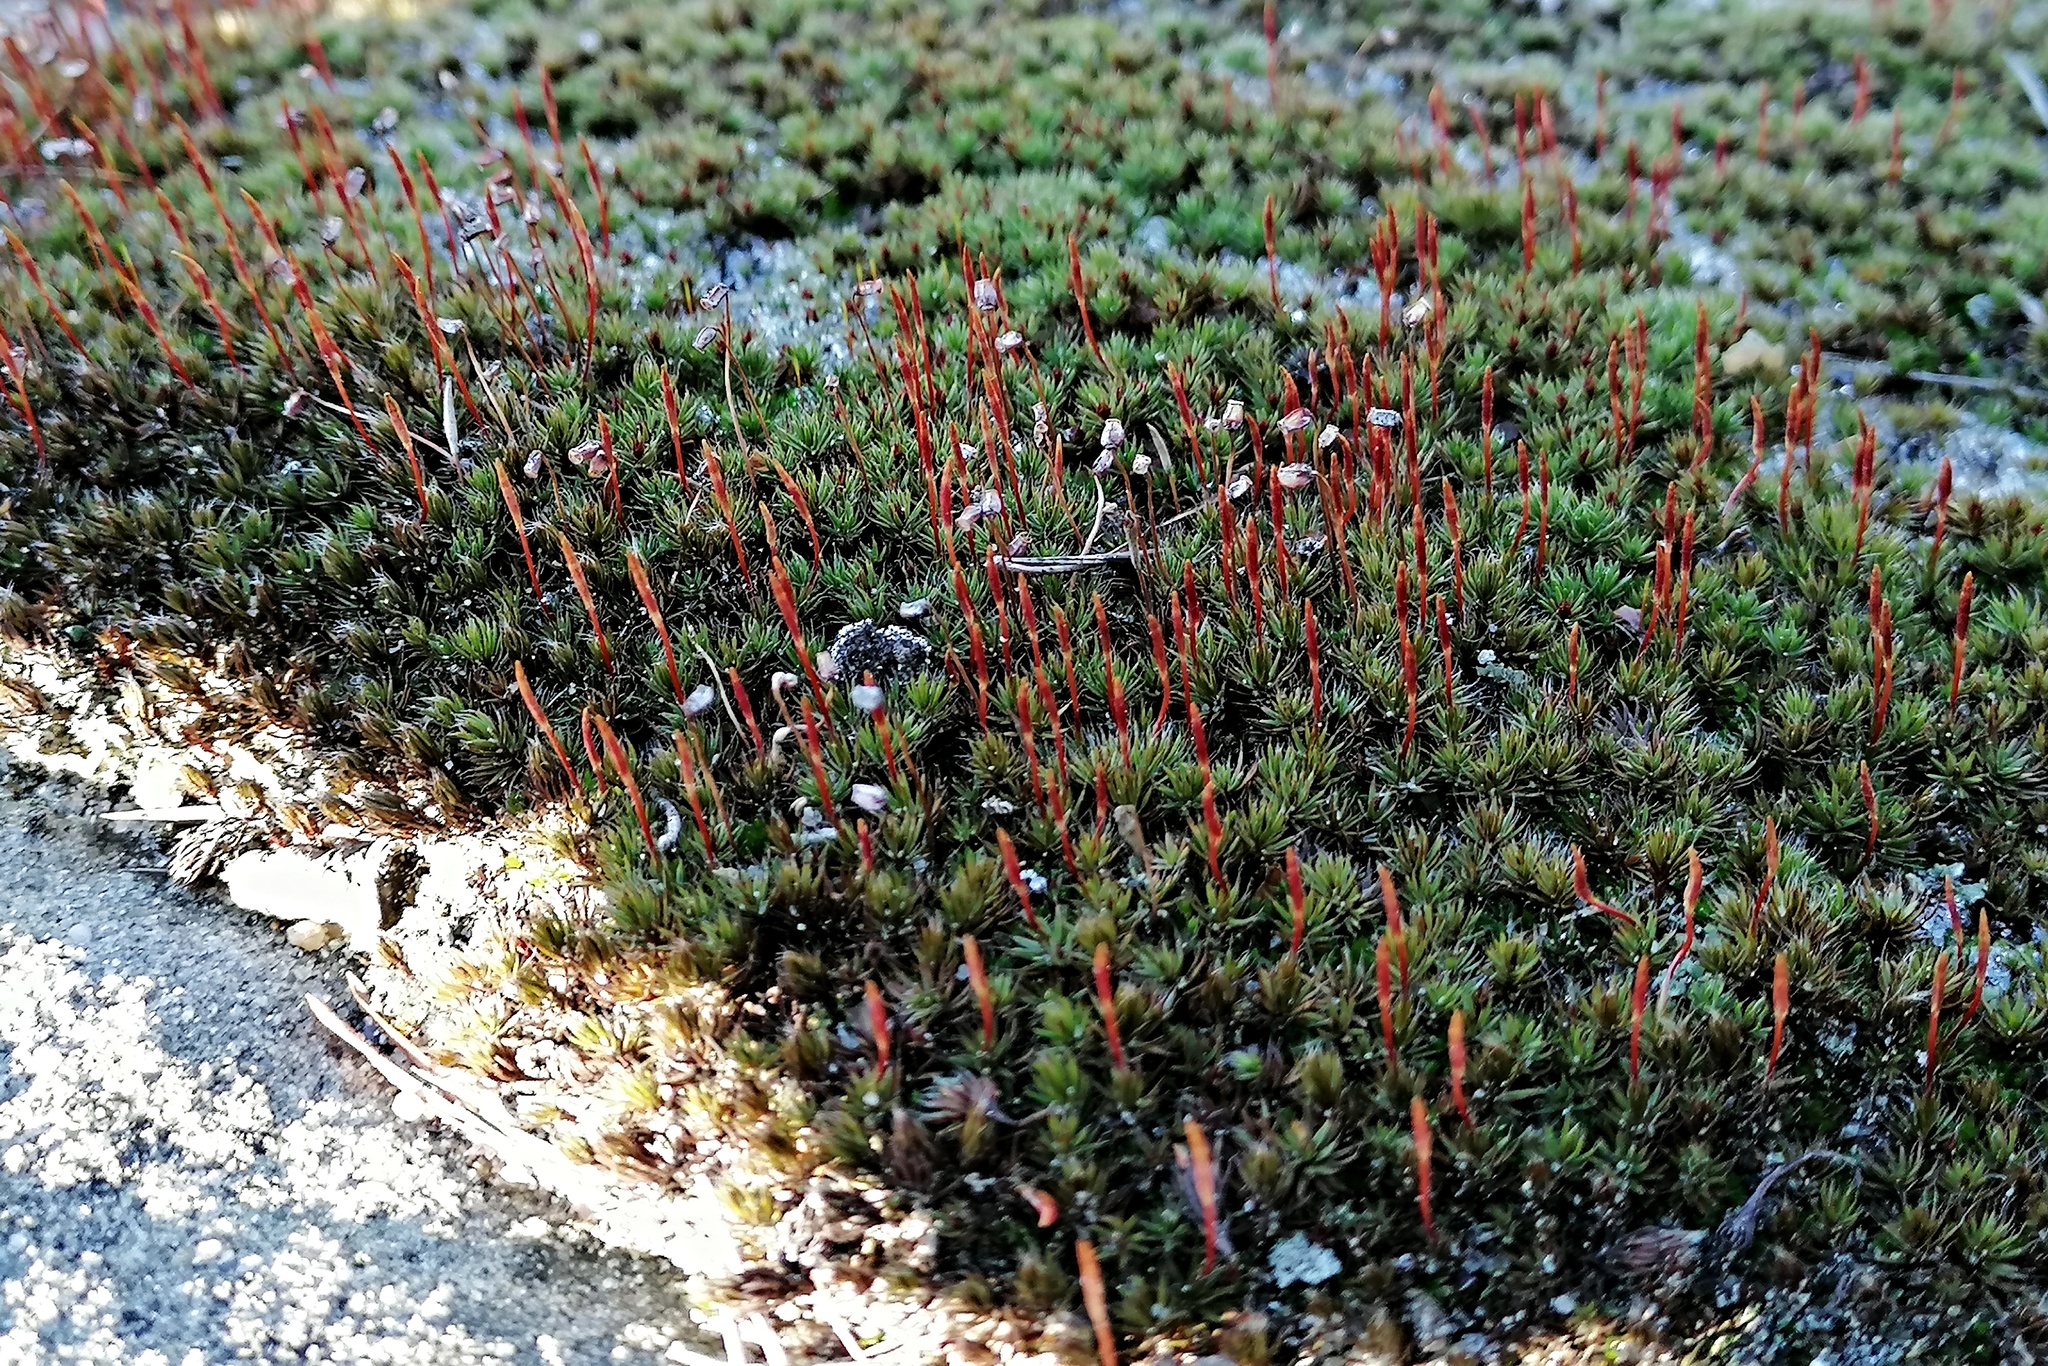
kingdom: Plantae
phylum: Bryophyta
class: Polytrichopsida
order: Polytrichales
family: Polytrichaceae
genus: Polytrichum
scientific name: Polytrichum piliferum
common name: Bristly haircap
